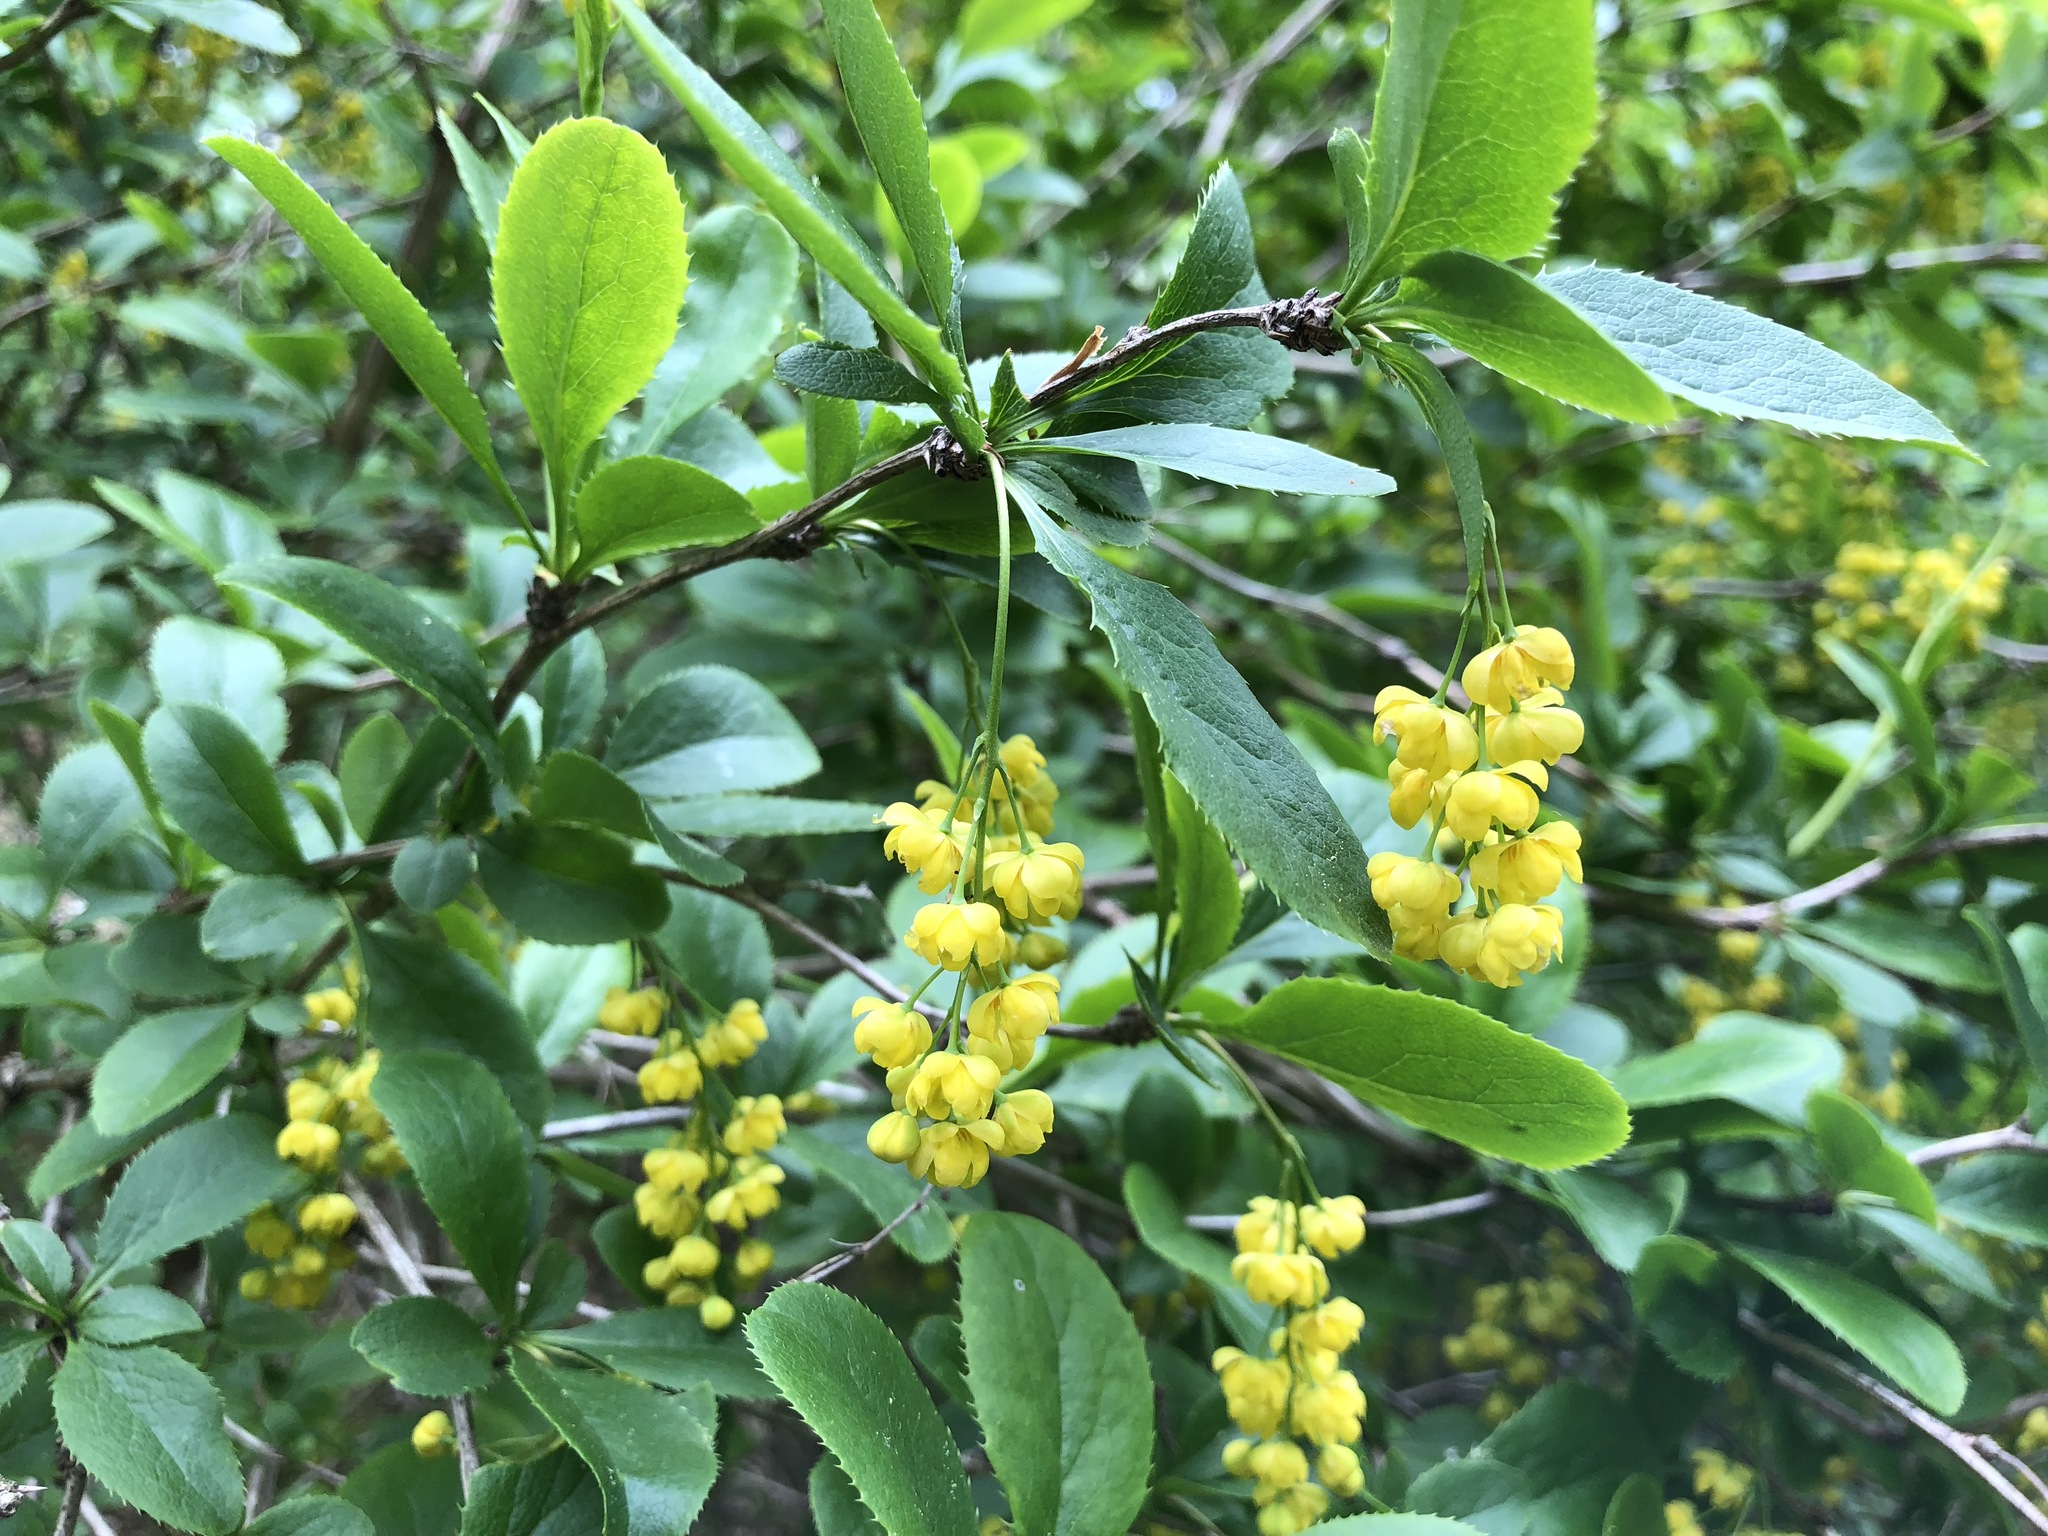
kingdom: Plantae
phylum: Tracheophyta
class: Magnoliopsida
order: Ranunculales
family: Berberidaceae
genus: Berberis
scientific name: Berberis vulgaris
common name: Barberry
